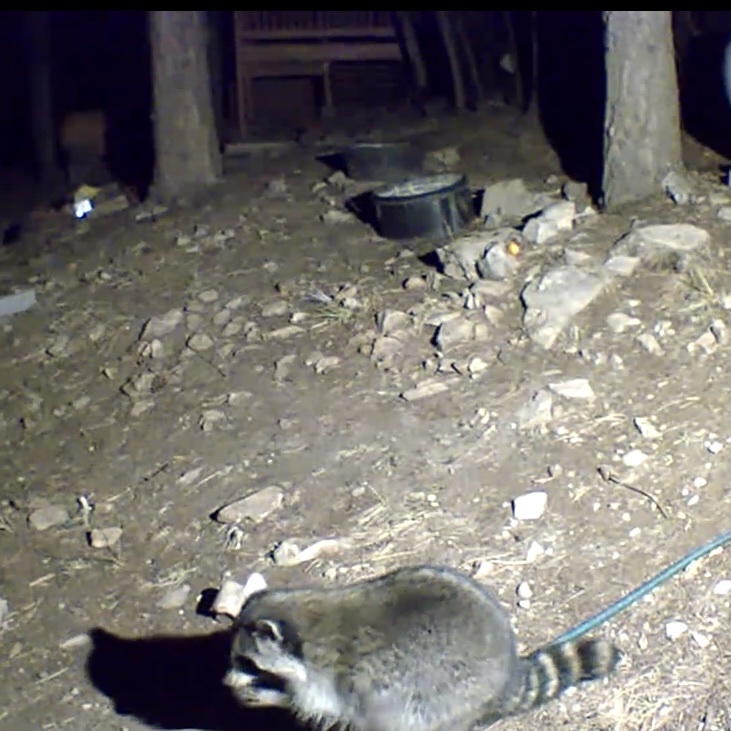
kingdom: Animalia
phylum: Chordata
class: Mammalia
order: Carnivora
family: Procyonidae
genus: Procyon
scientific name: Procyon lotor
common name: Raccoon
